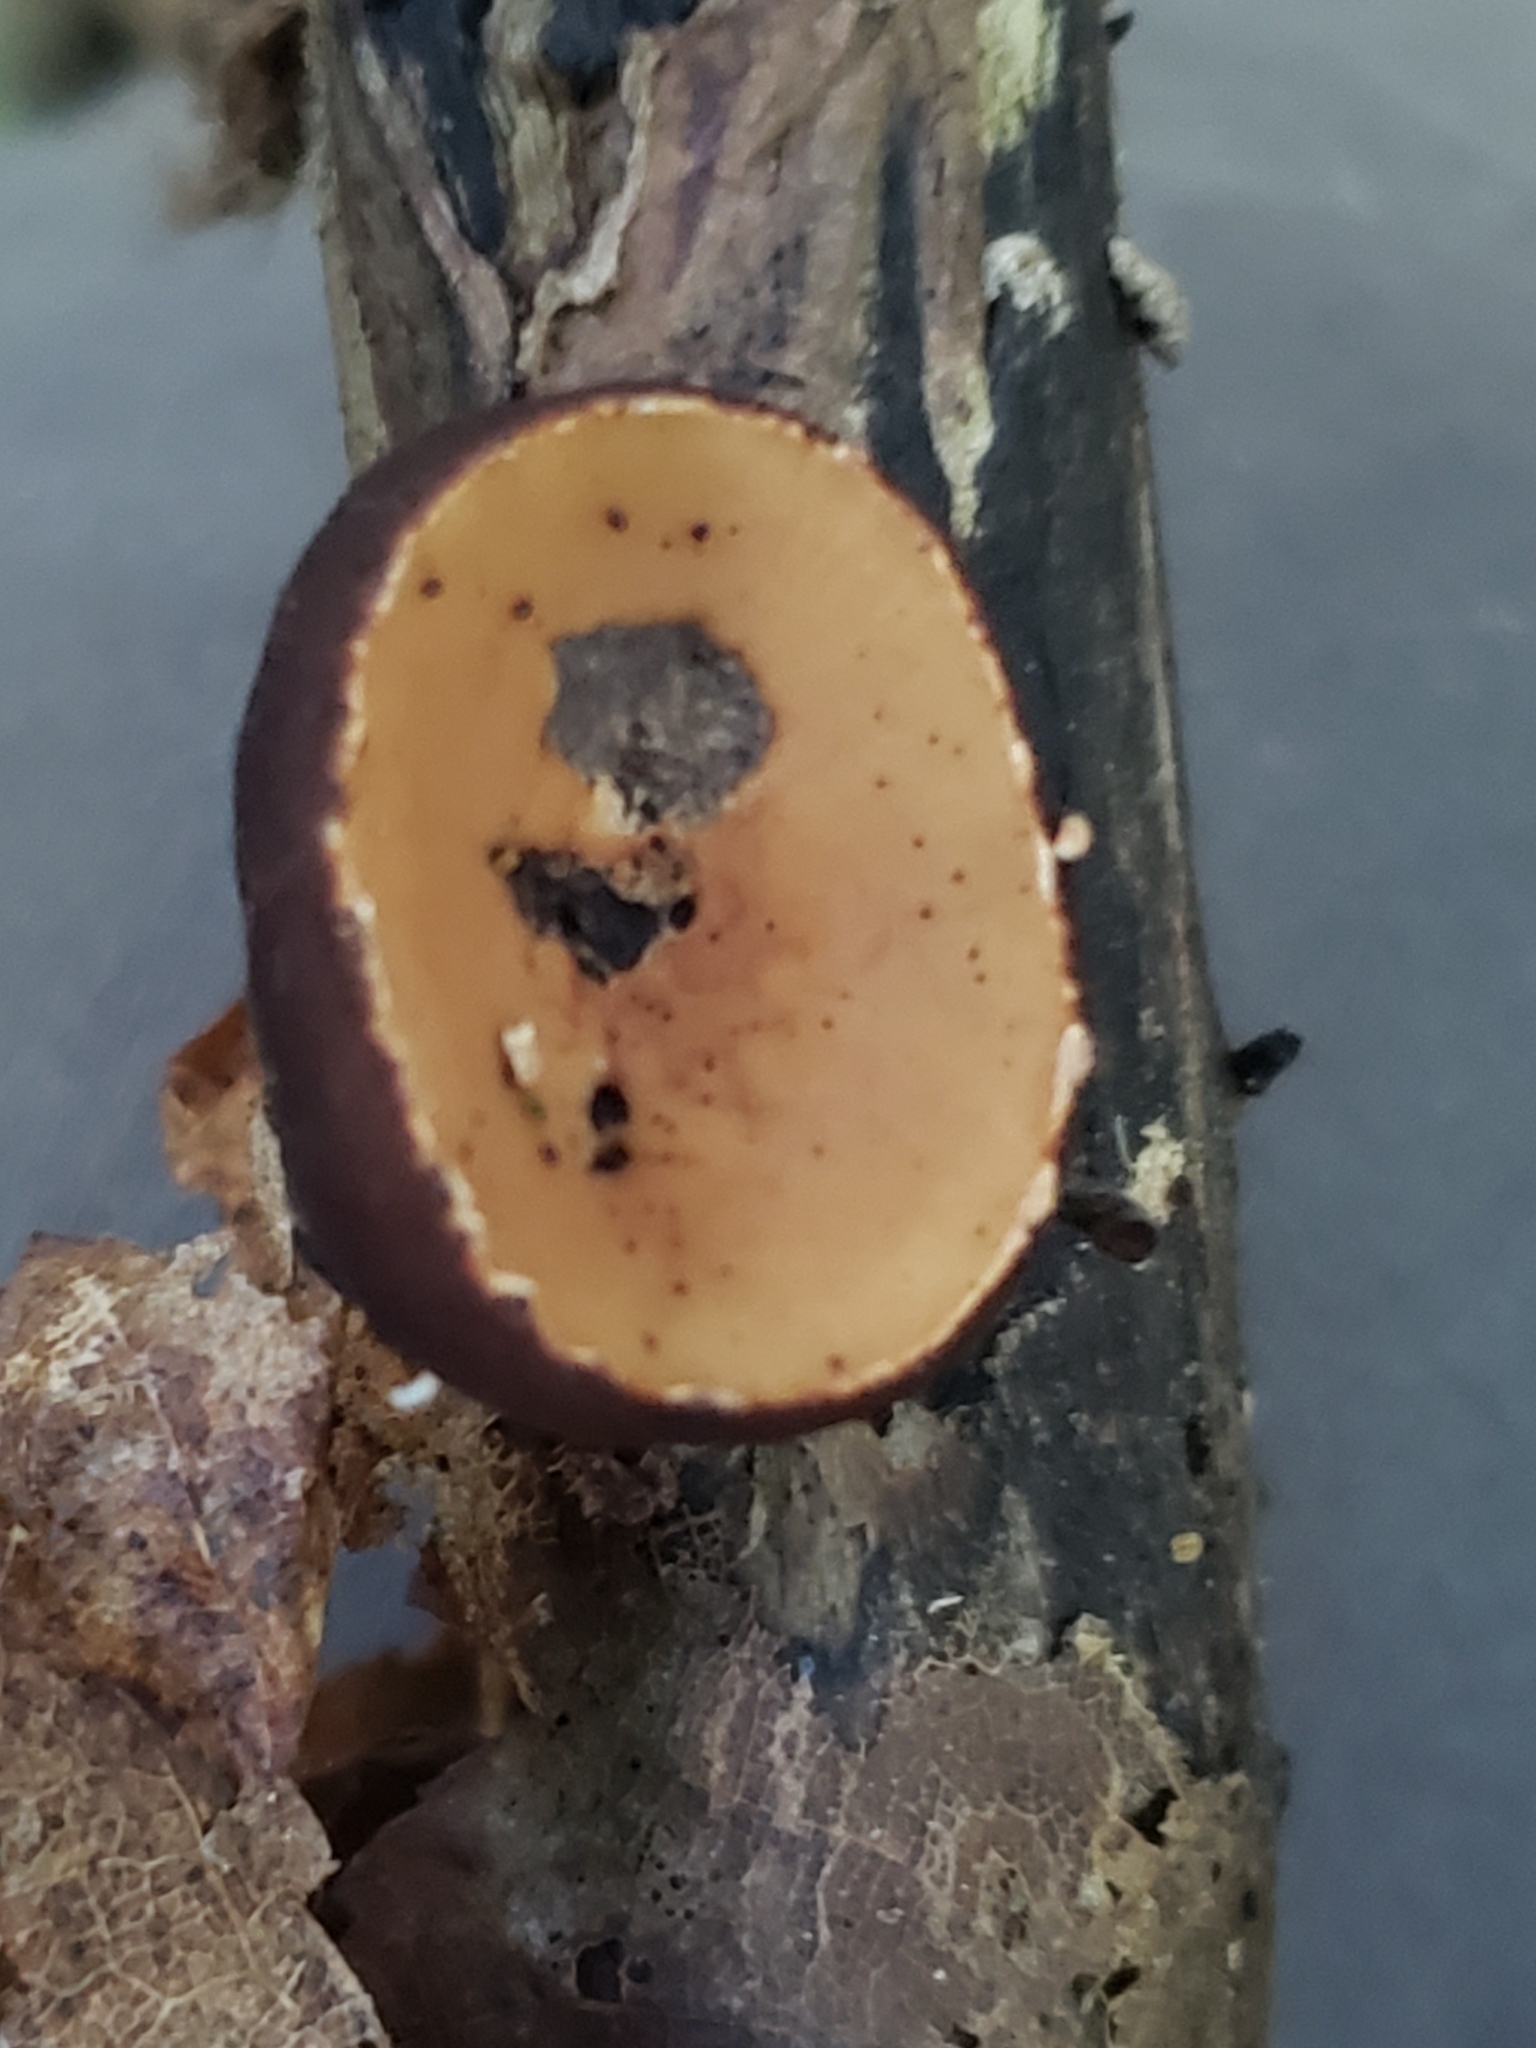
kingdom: Fungi
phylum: Ascomycota
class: Pezizomycetes
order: Pezizales
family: Sarcosomataceae
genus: Galiella
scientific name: Galiella rufa
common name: Hairy rubber cup
